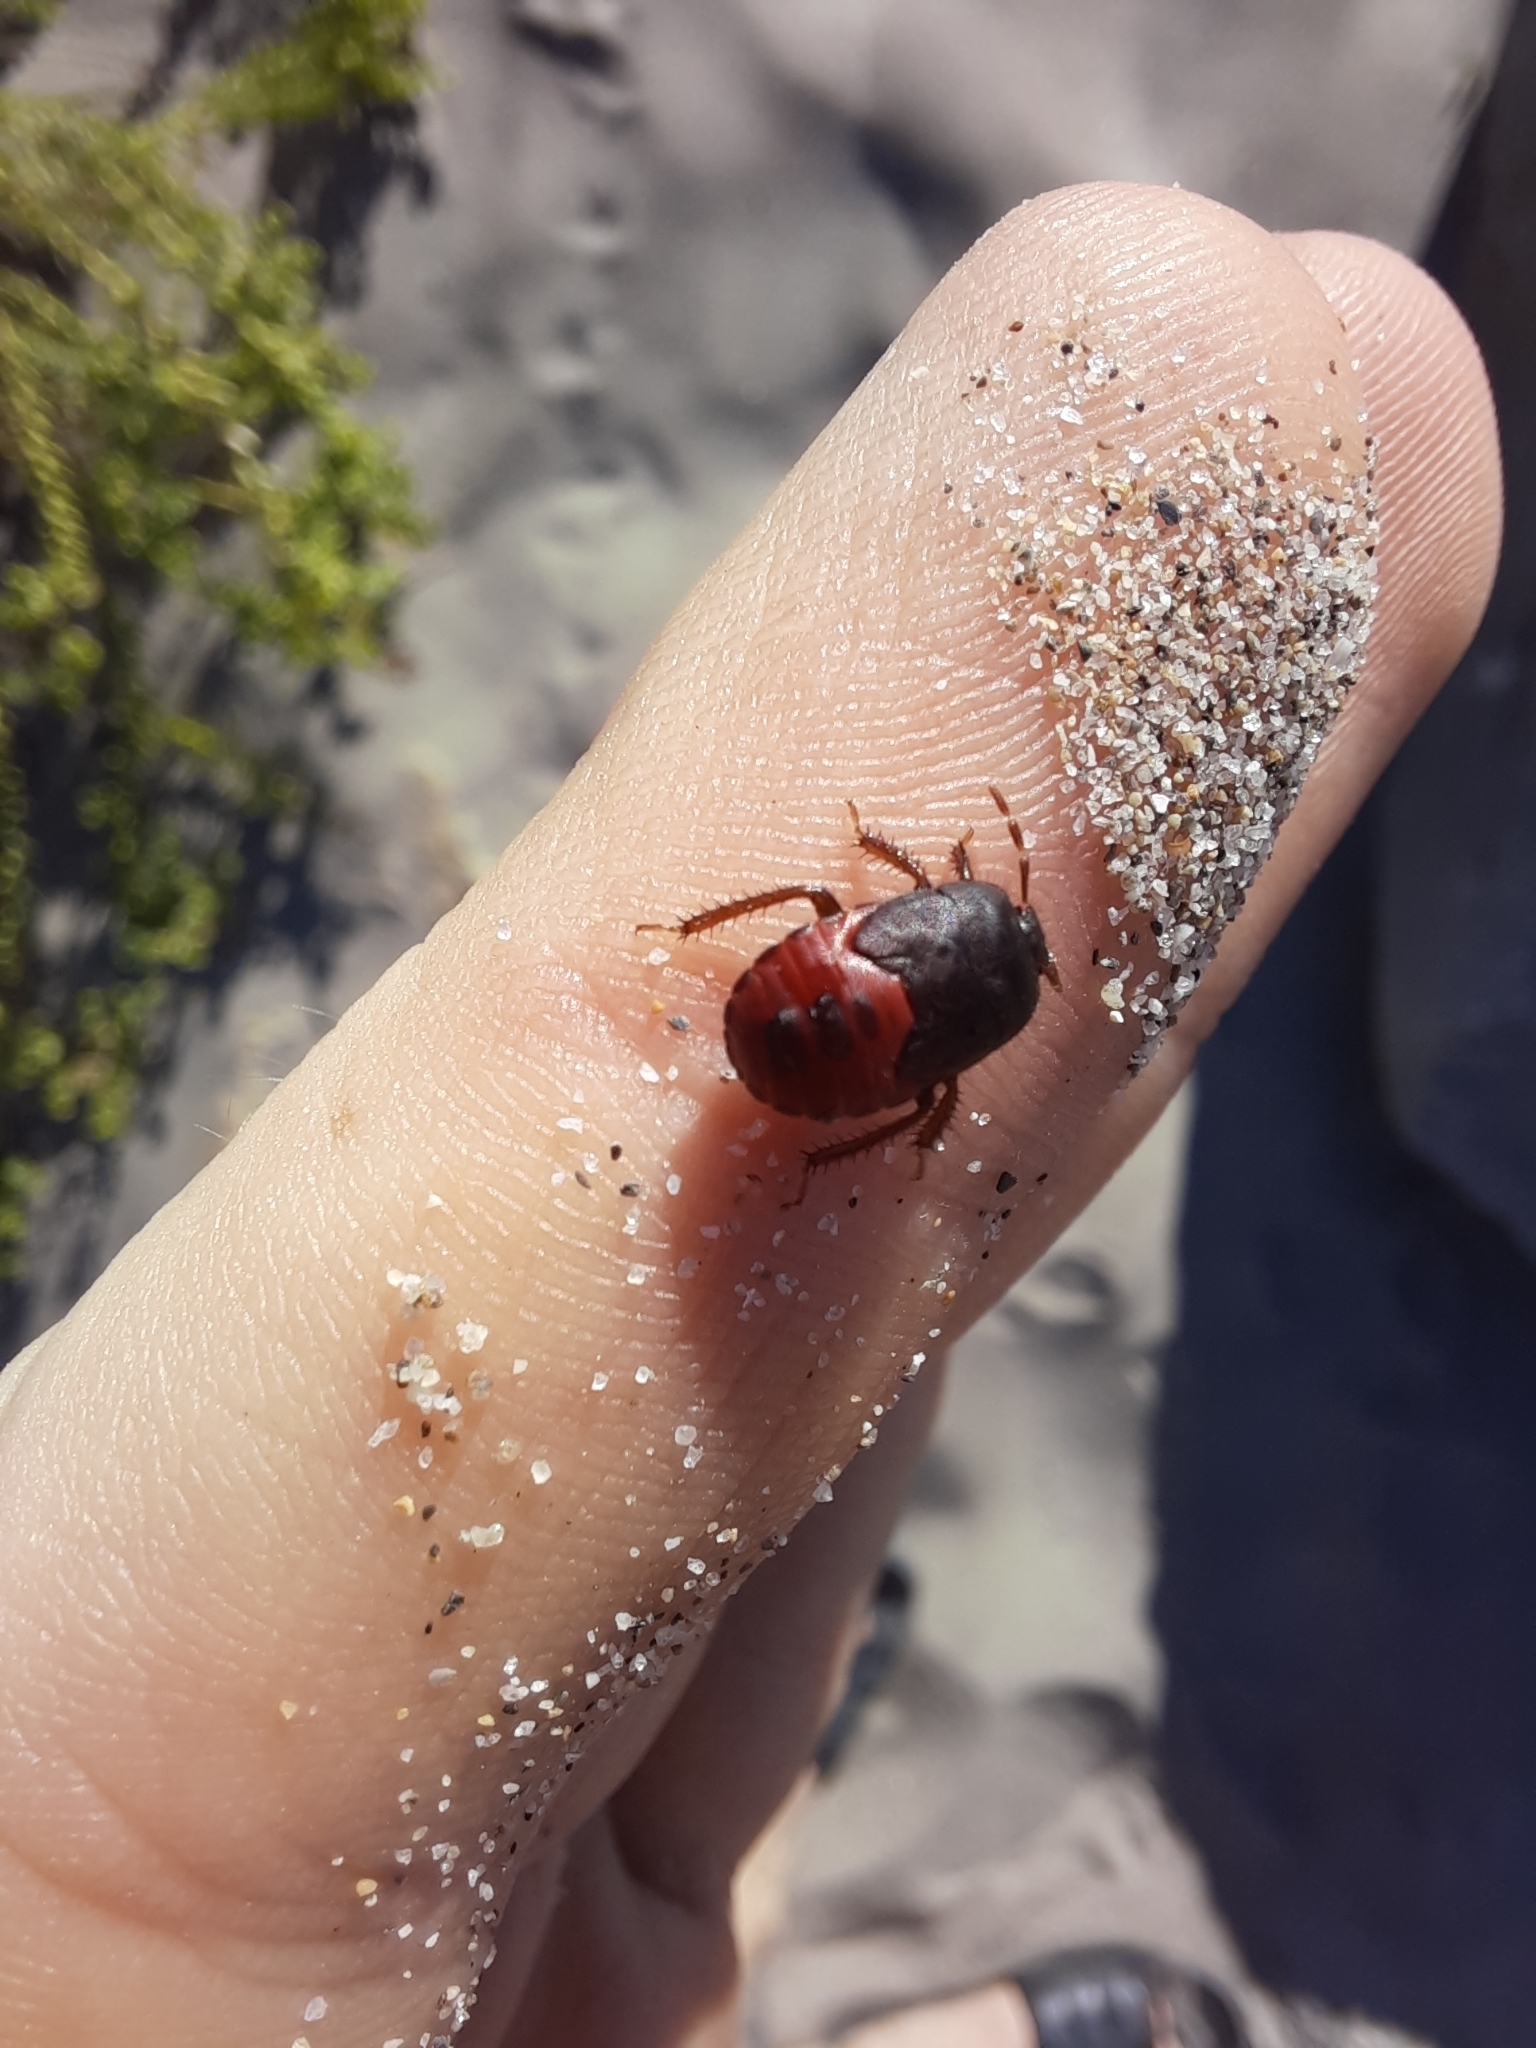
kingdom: Animalia
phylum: Arthropoda
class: Insecta
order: Hemiptera
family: Cydnidae
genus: Cydnus
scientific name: Cydnus aterrimus
